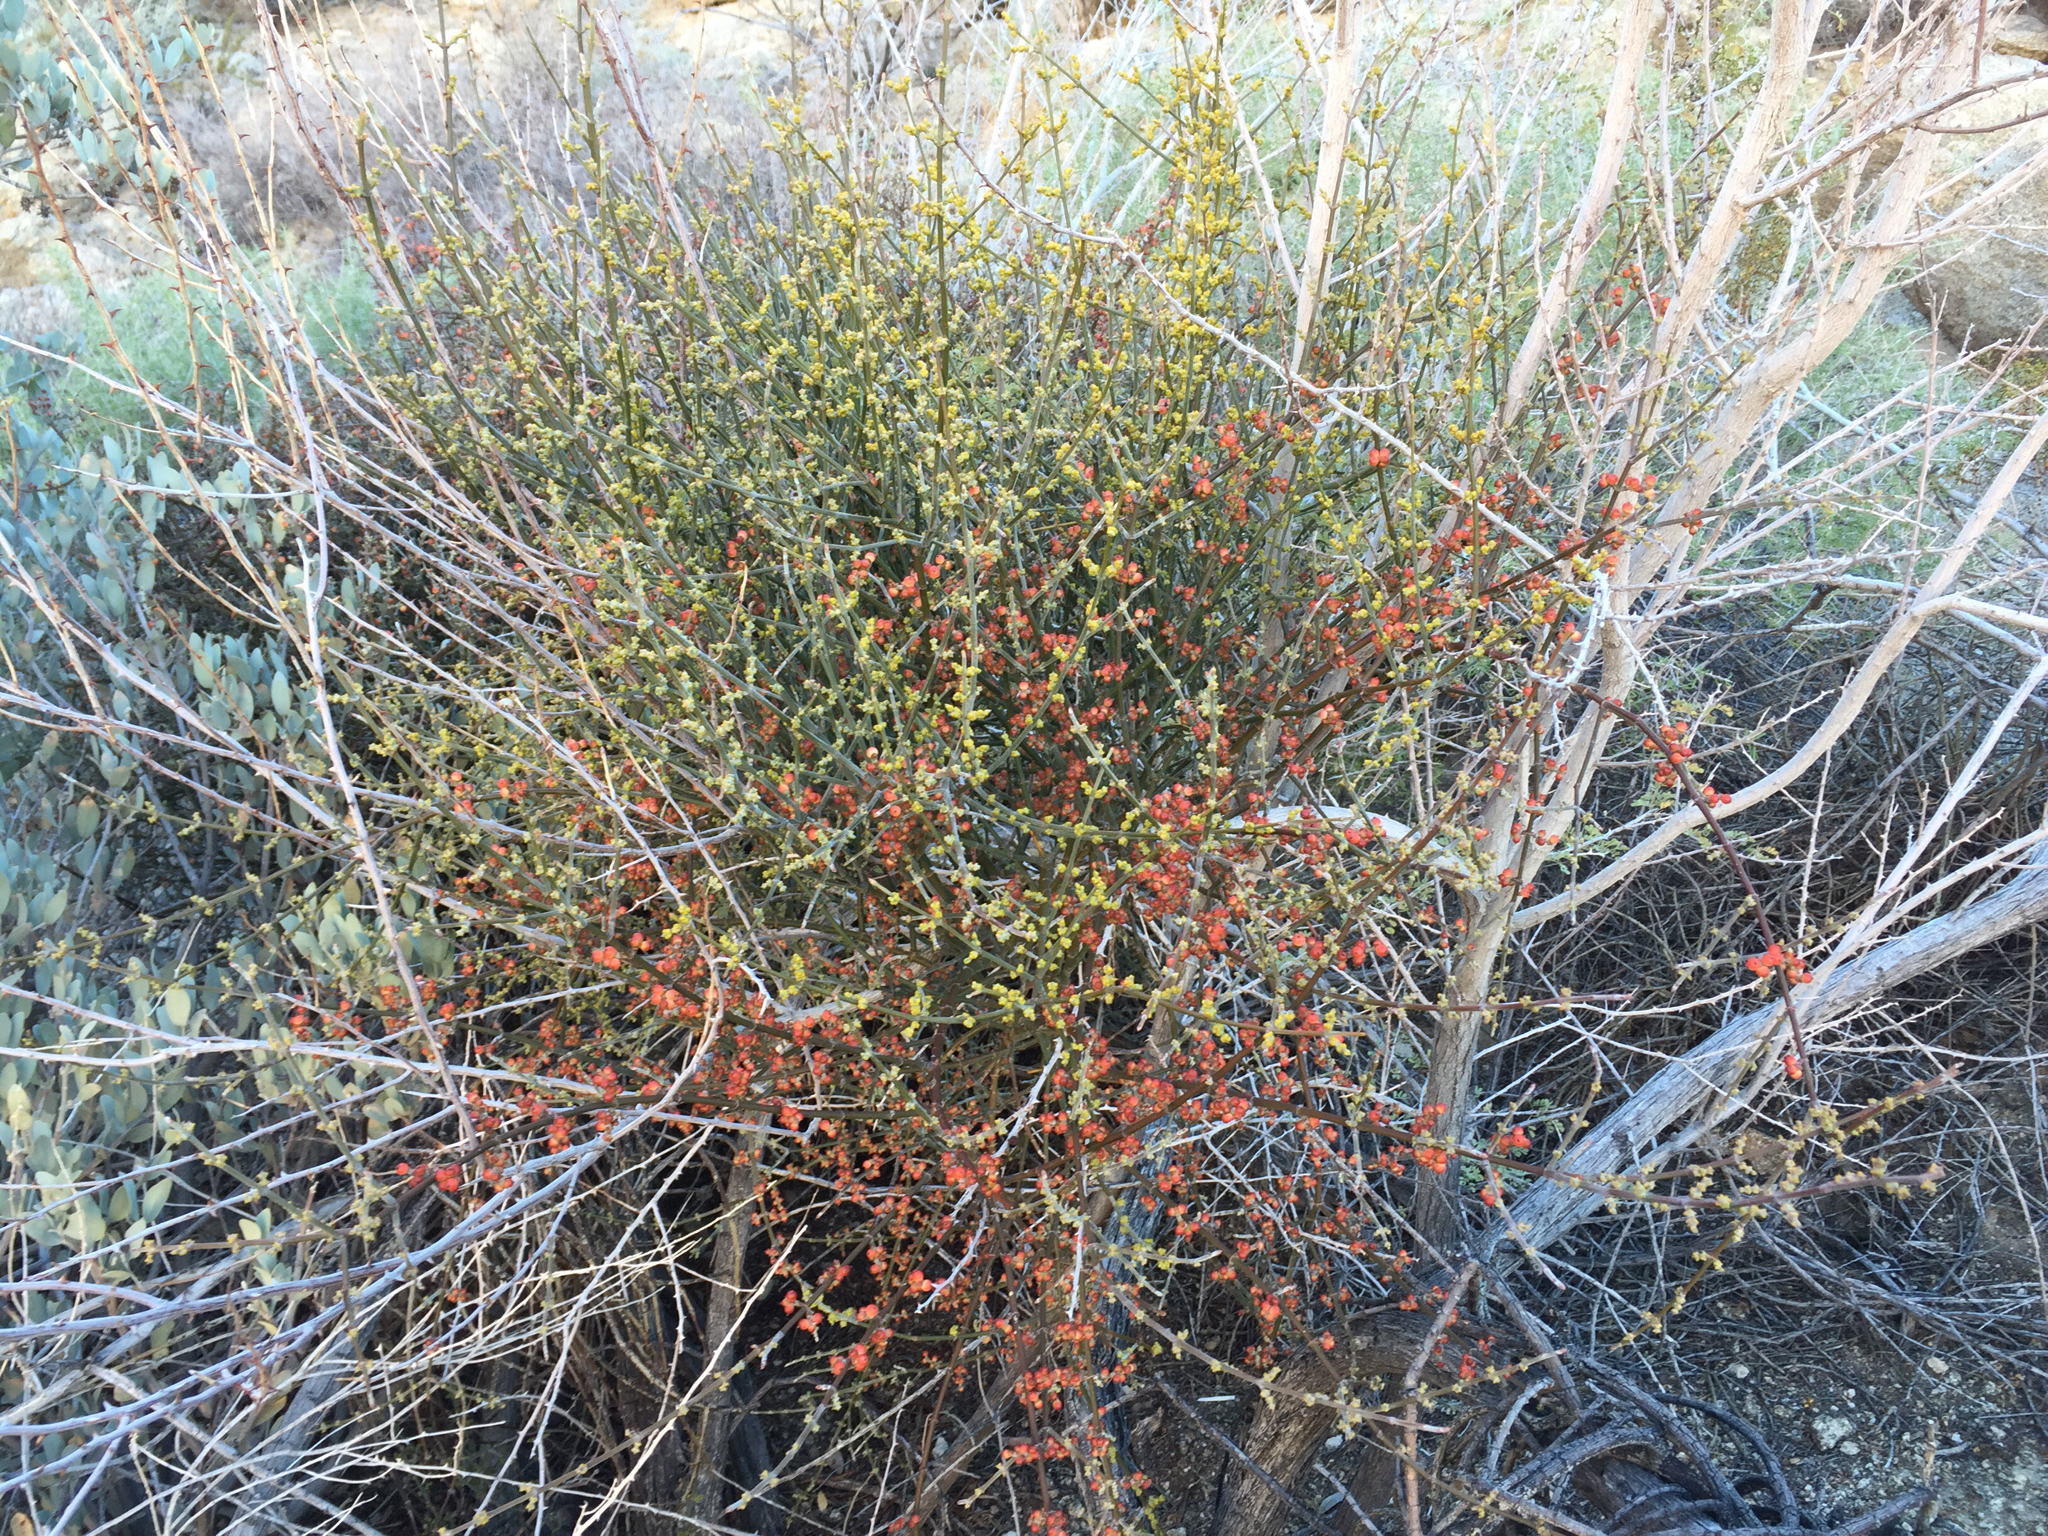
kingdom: Plantae
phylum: Tracheophyta
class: Magnoliopsida
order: Santalales
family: Viscaceae
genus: Phoradendron
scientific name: Phoradendron californicum
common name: Acacia mistletoe
